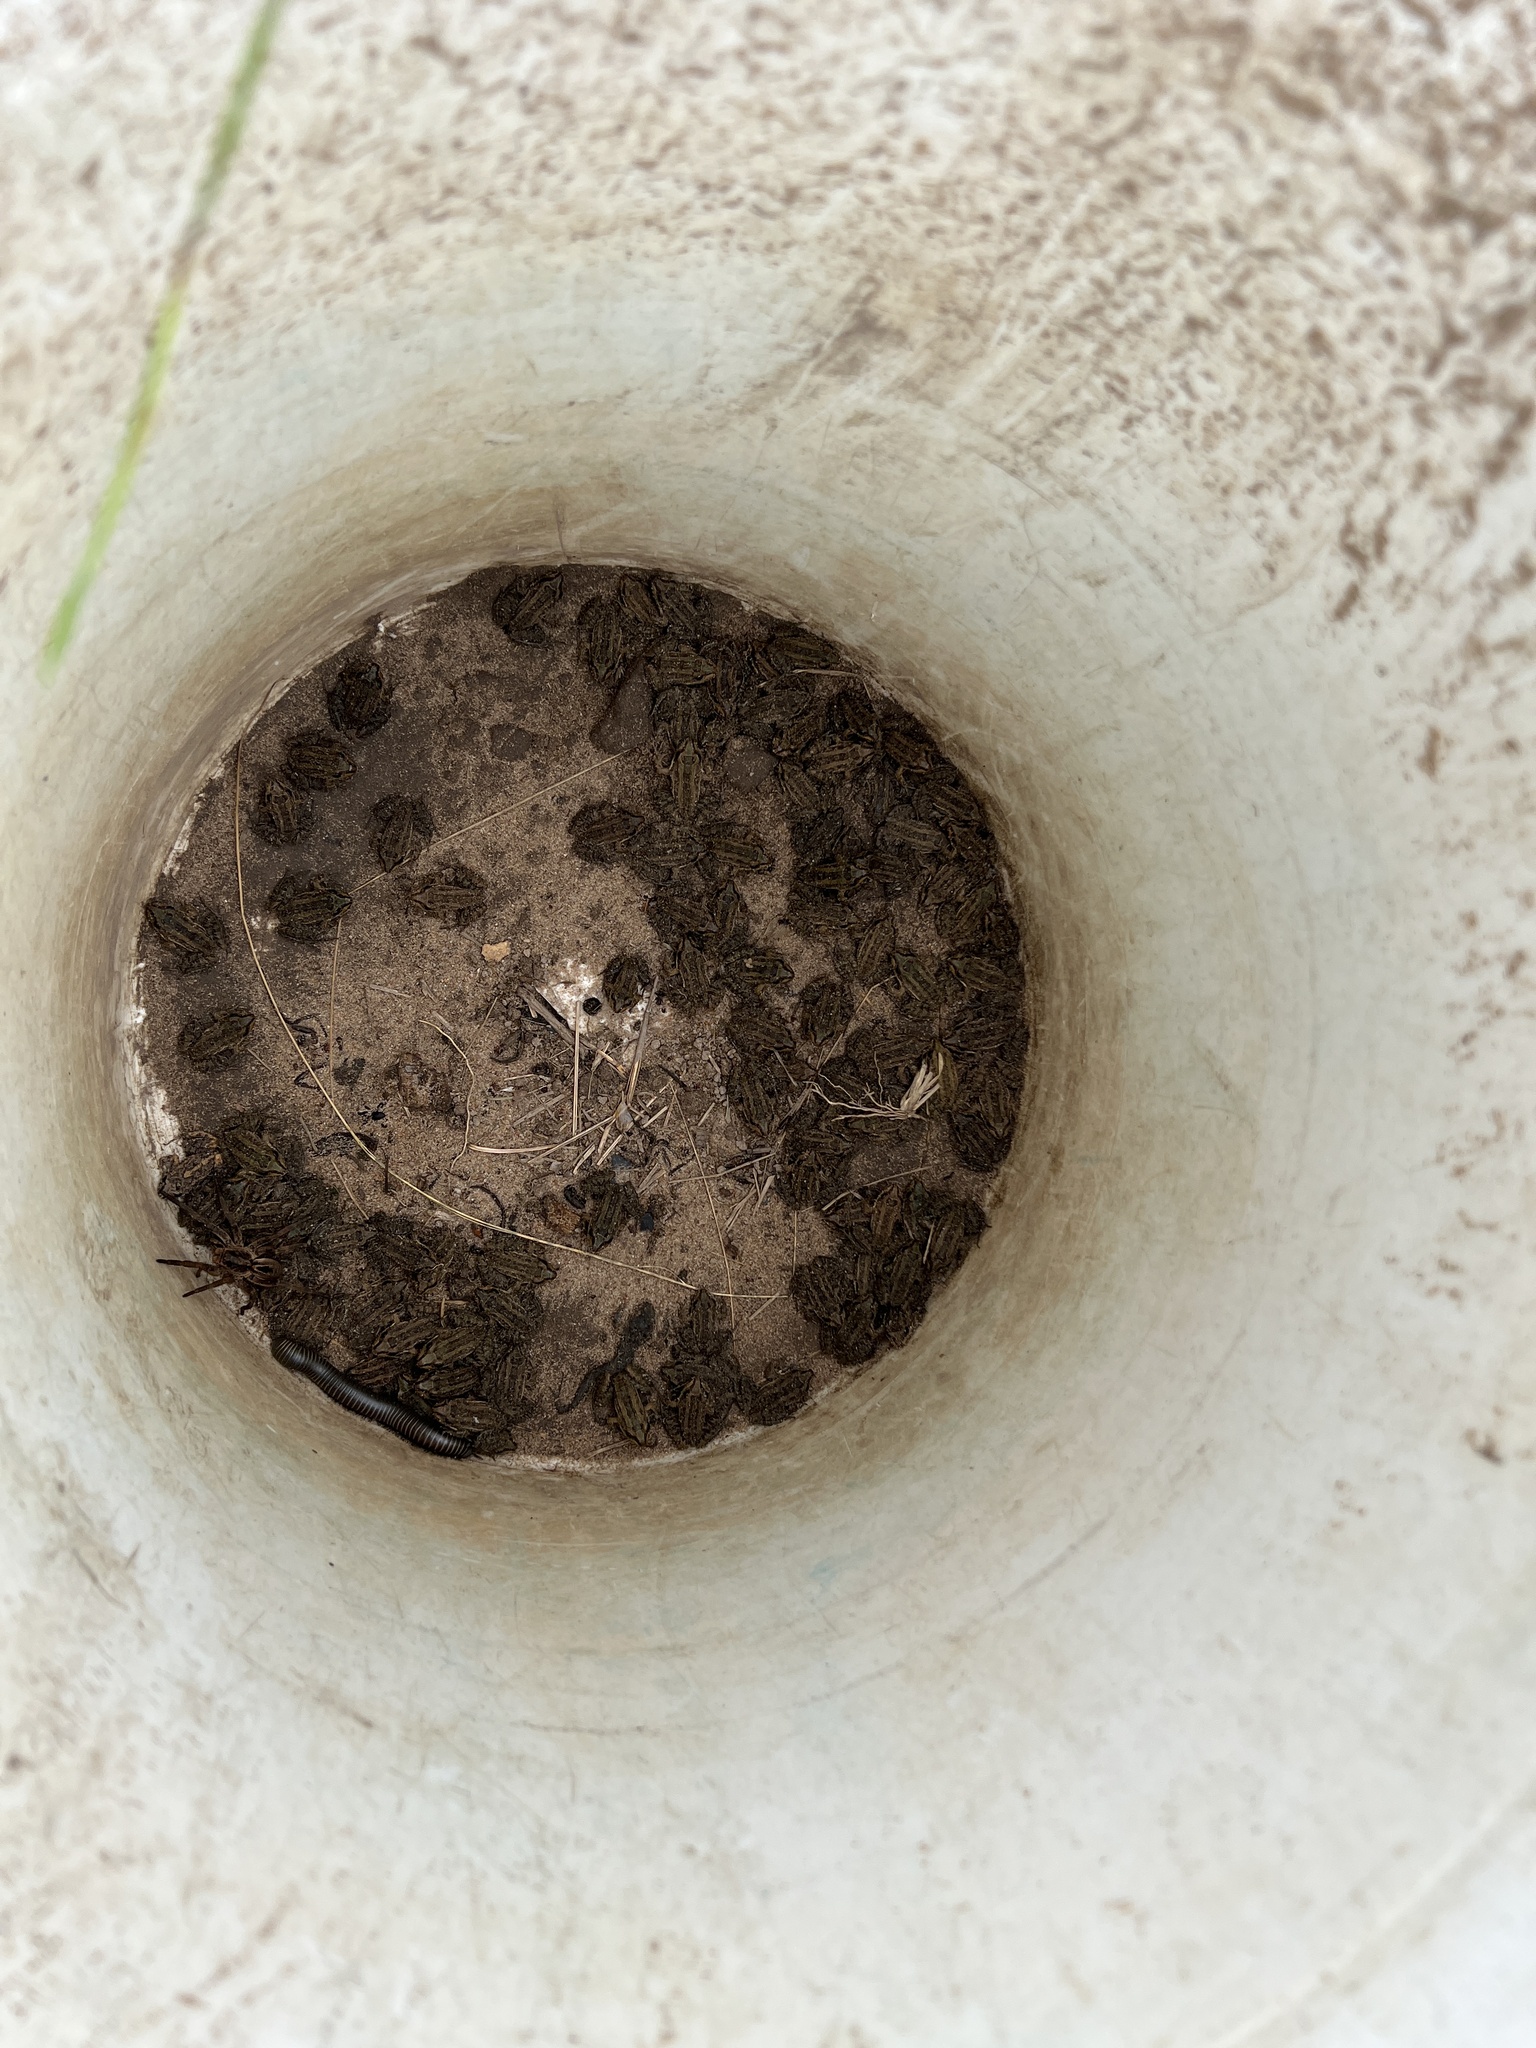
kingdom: Animalia
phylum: Chordata
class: Amphibia
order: Anura
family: Leptodactylidae
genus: Leptodactylus
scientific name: Leptodactylus latrans
